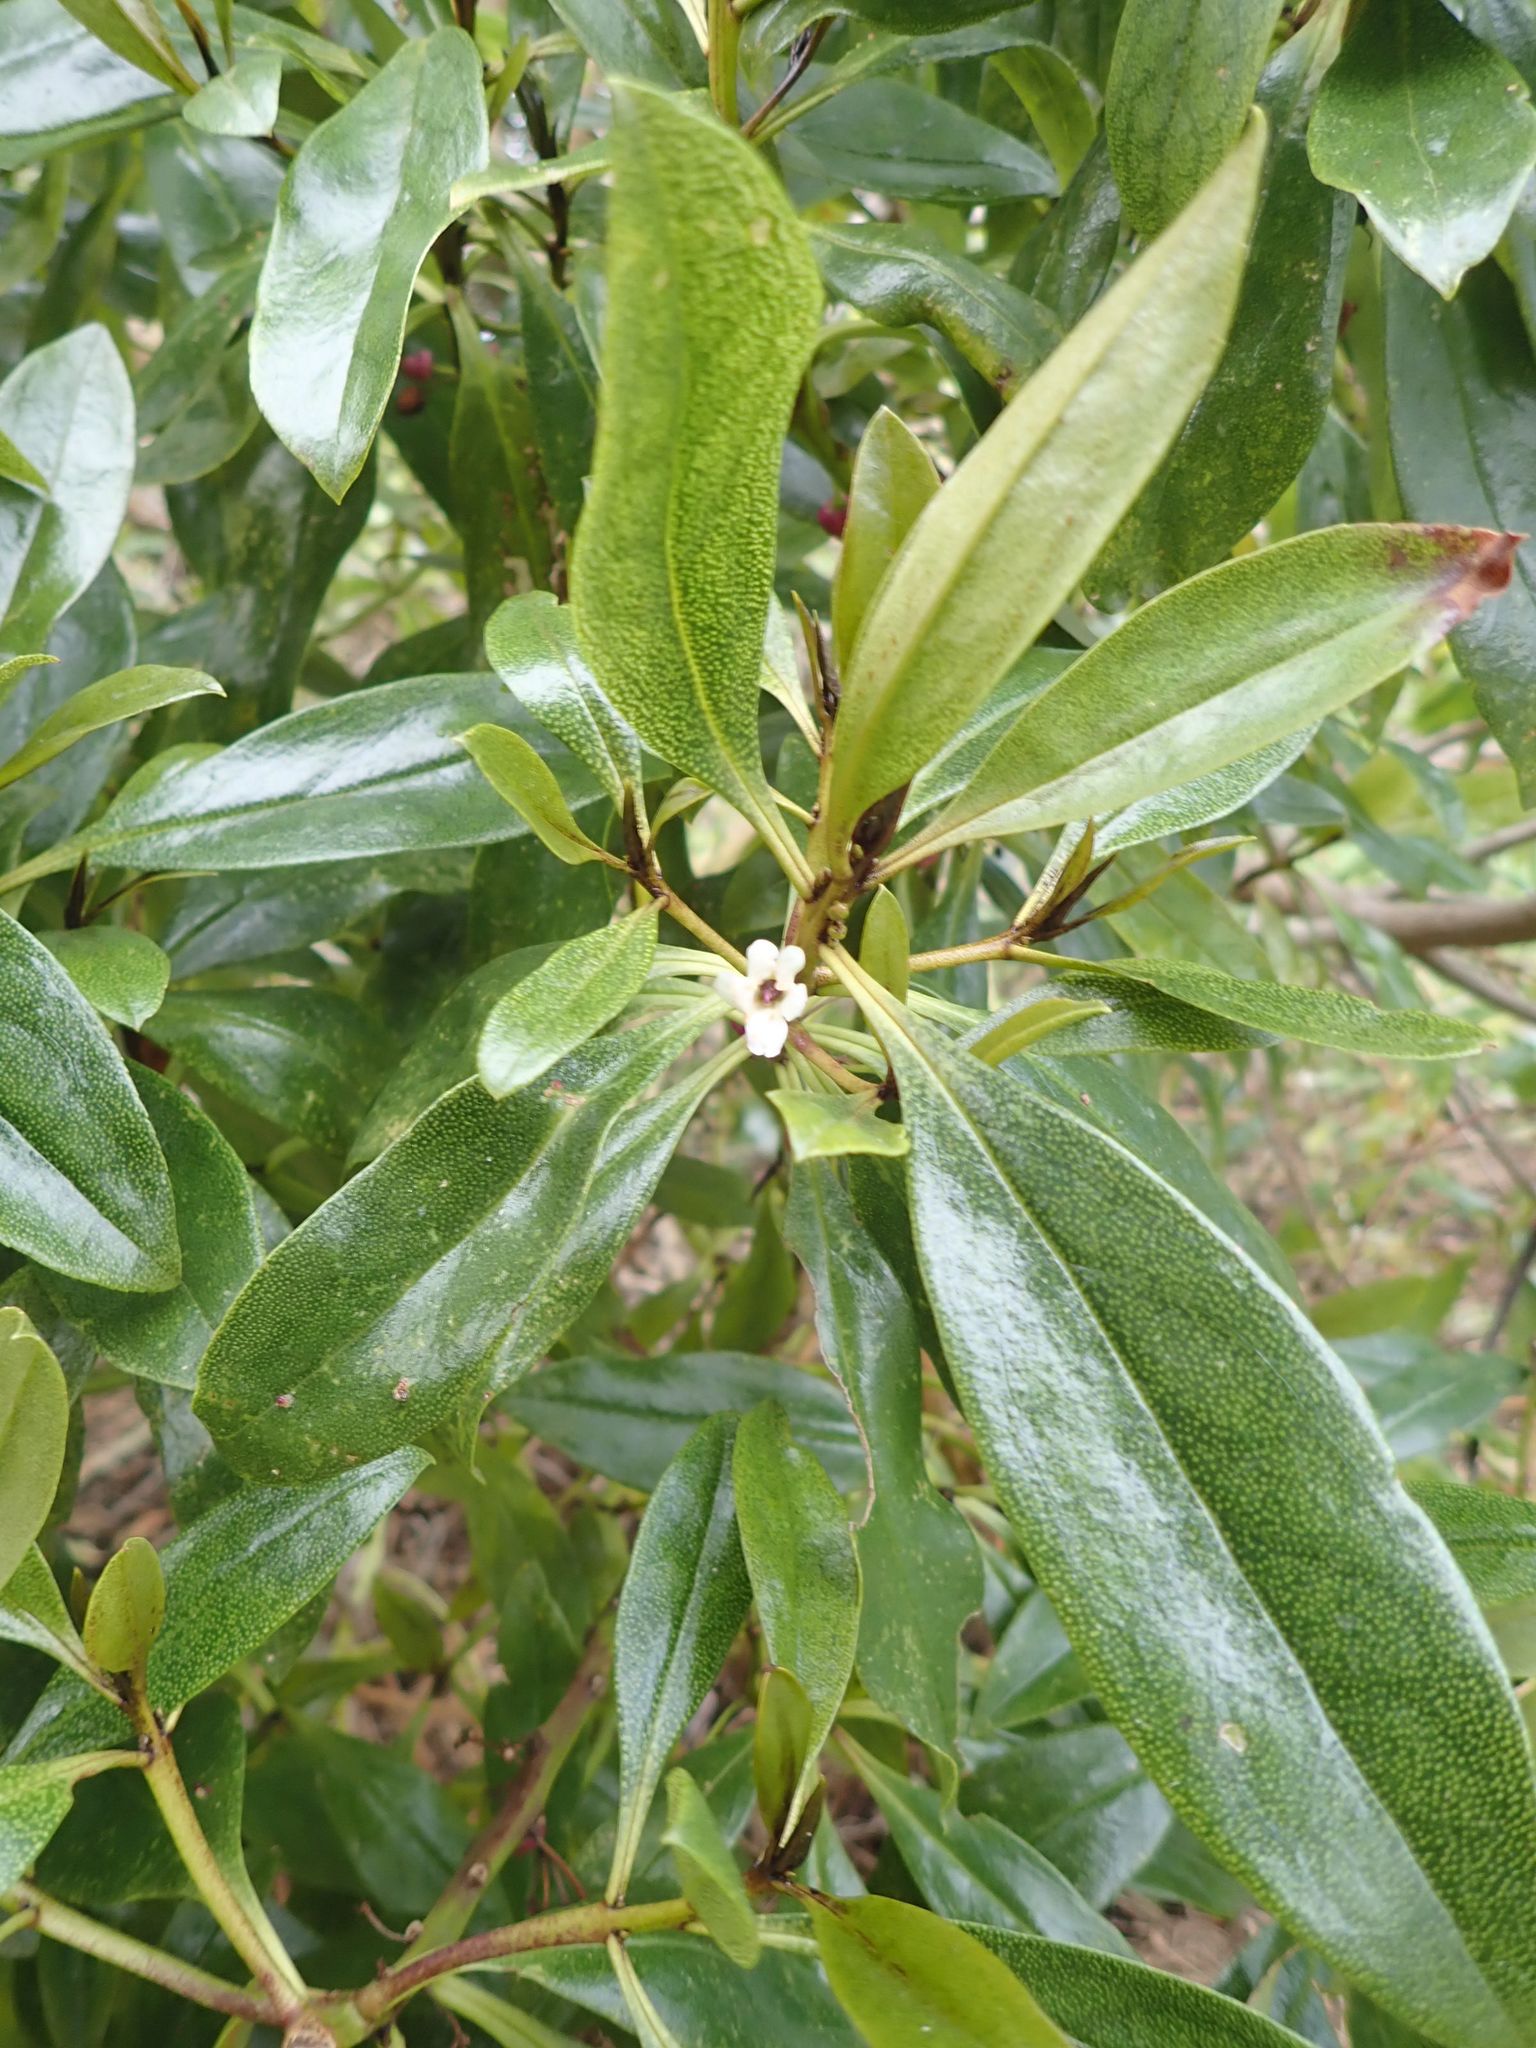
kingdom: Plantae
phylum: Tracheophyta
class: Magnoliopsida
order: Lamiales
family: Scrophulariaceae
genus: Myoporum
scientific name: Myoporum laetum
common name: Ngaio tree
